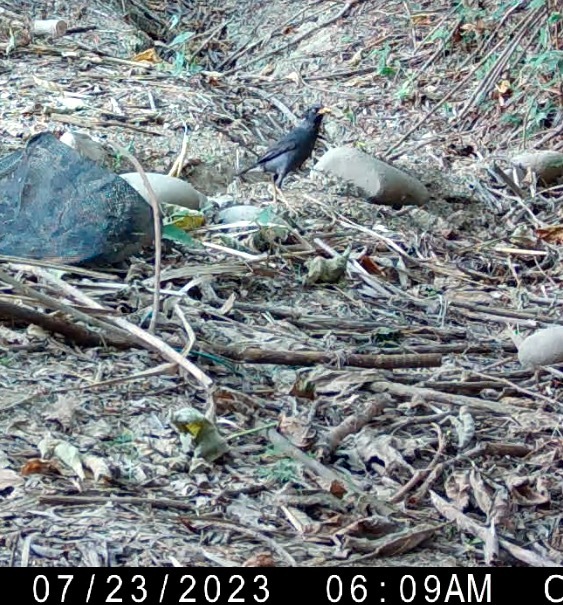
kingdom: Animalia
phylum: Chordata
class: Aves
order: Passeriformes
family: Sturnidae
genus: Acridotheres
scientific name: Acridotheres javanicus
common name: Javan myna
